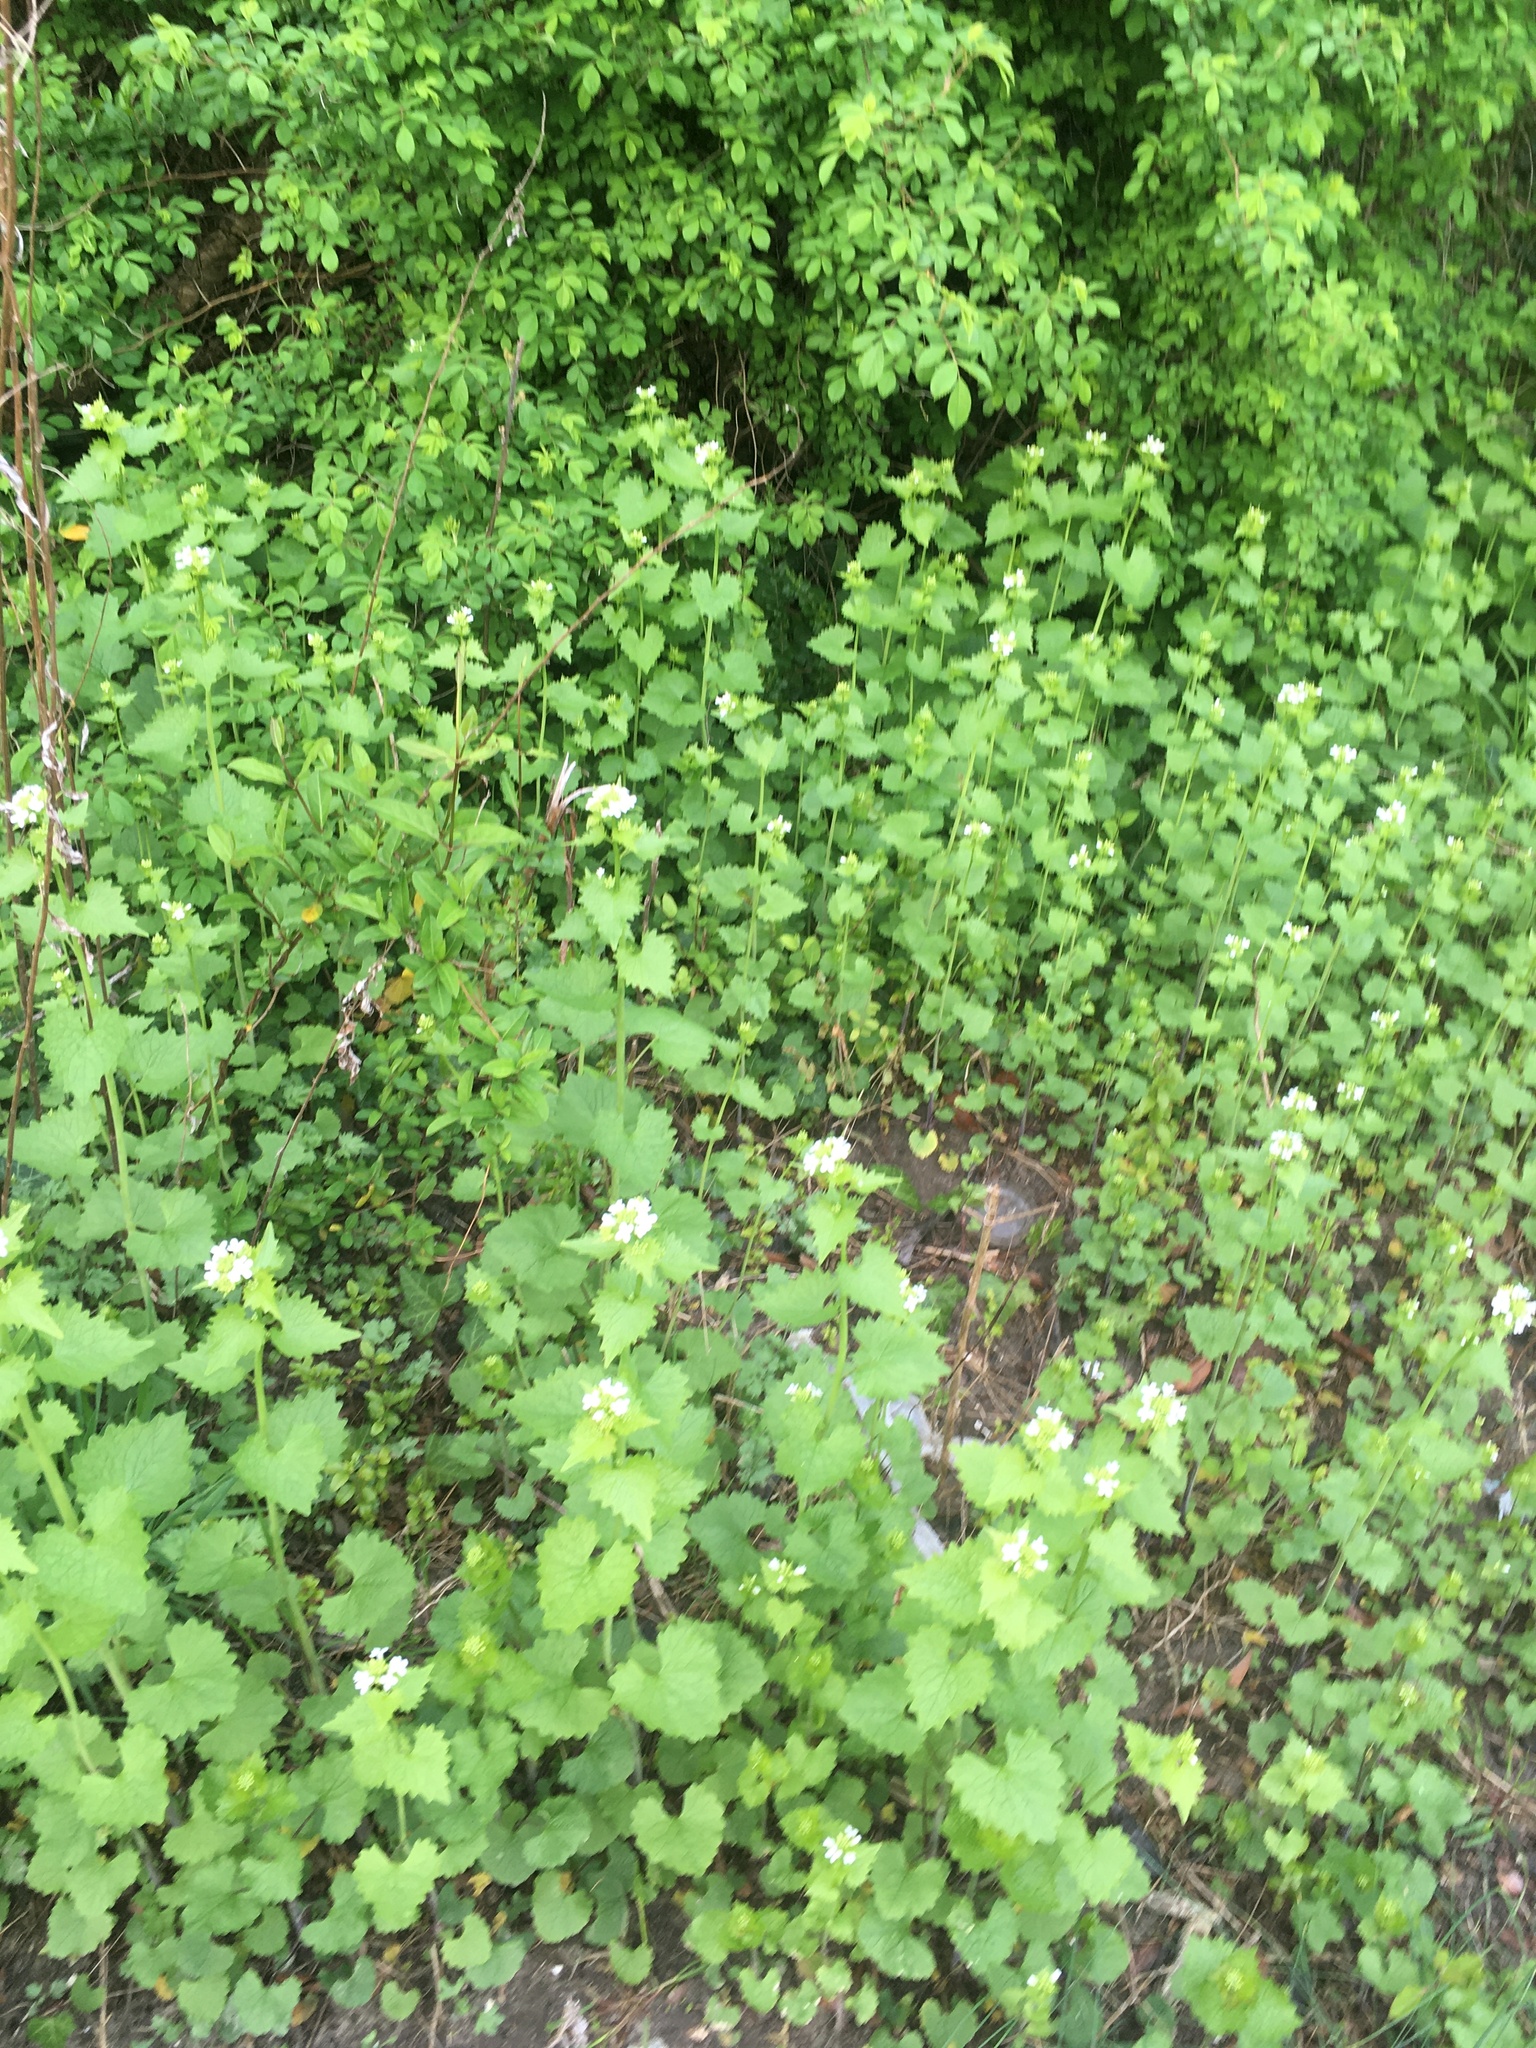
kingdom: Plantae
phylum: Tracheophyta
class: Magnoliopsida
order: Brassicales
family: Brassicaceae
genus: Alliaria
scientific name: Alliaria petiolata
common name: Garlic mustard
